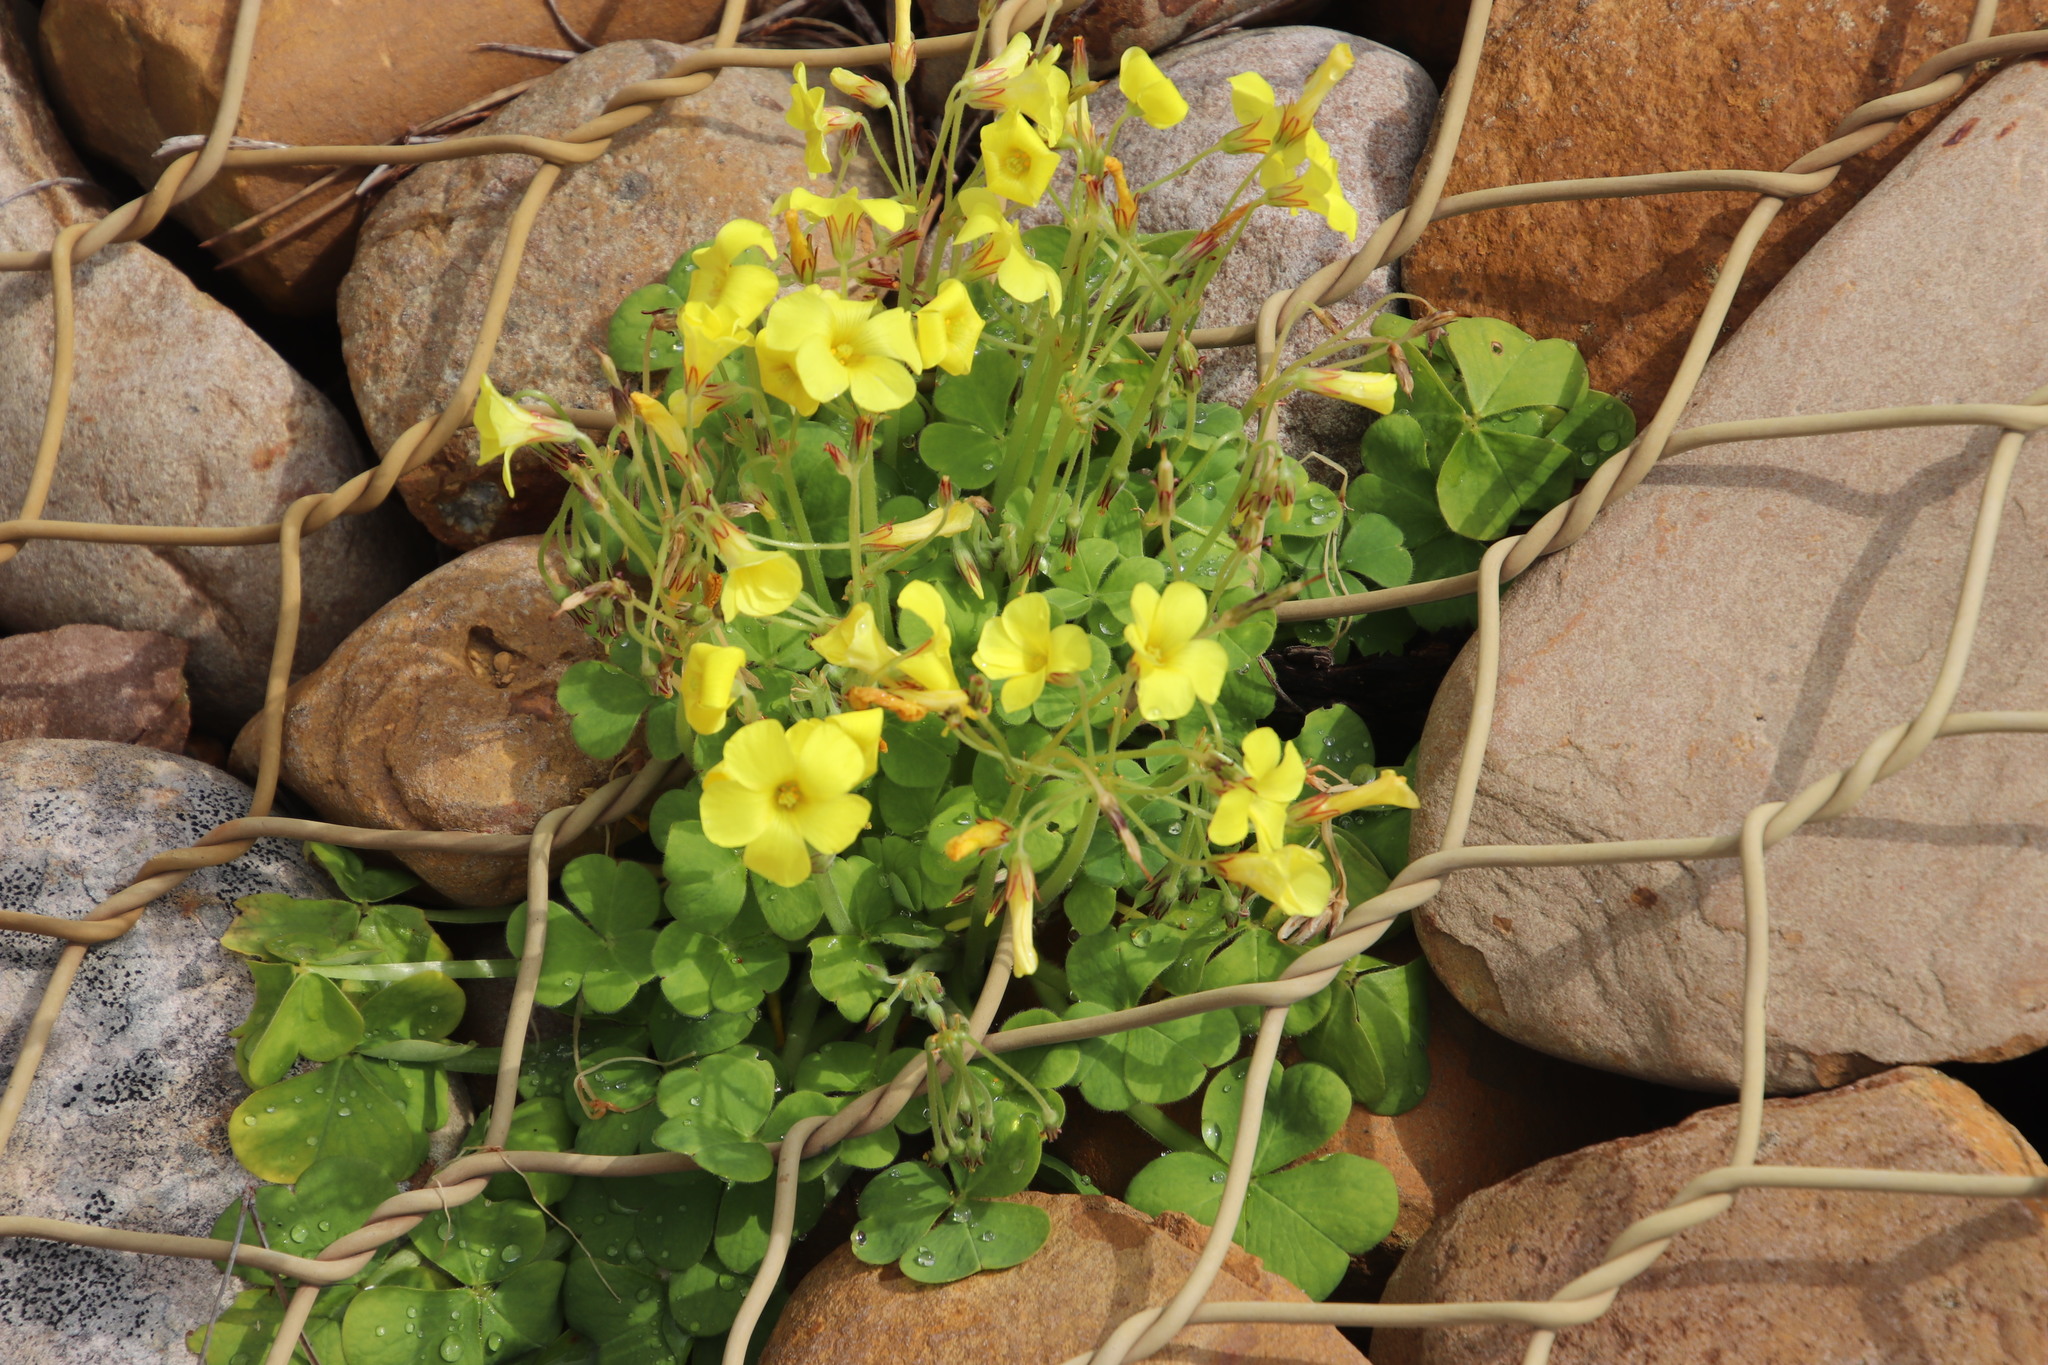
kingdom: Plantae
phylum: Tracheophyta
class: Magnoliopsida
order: Oxalidales
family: Oxalidaceae
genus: Oxalis
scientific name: Oxalis compressa
